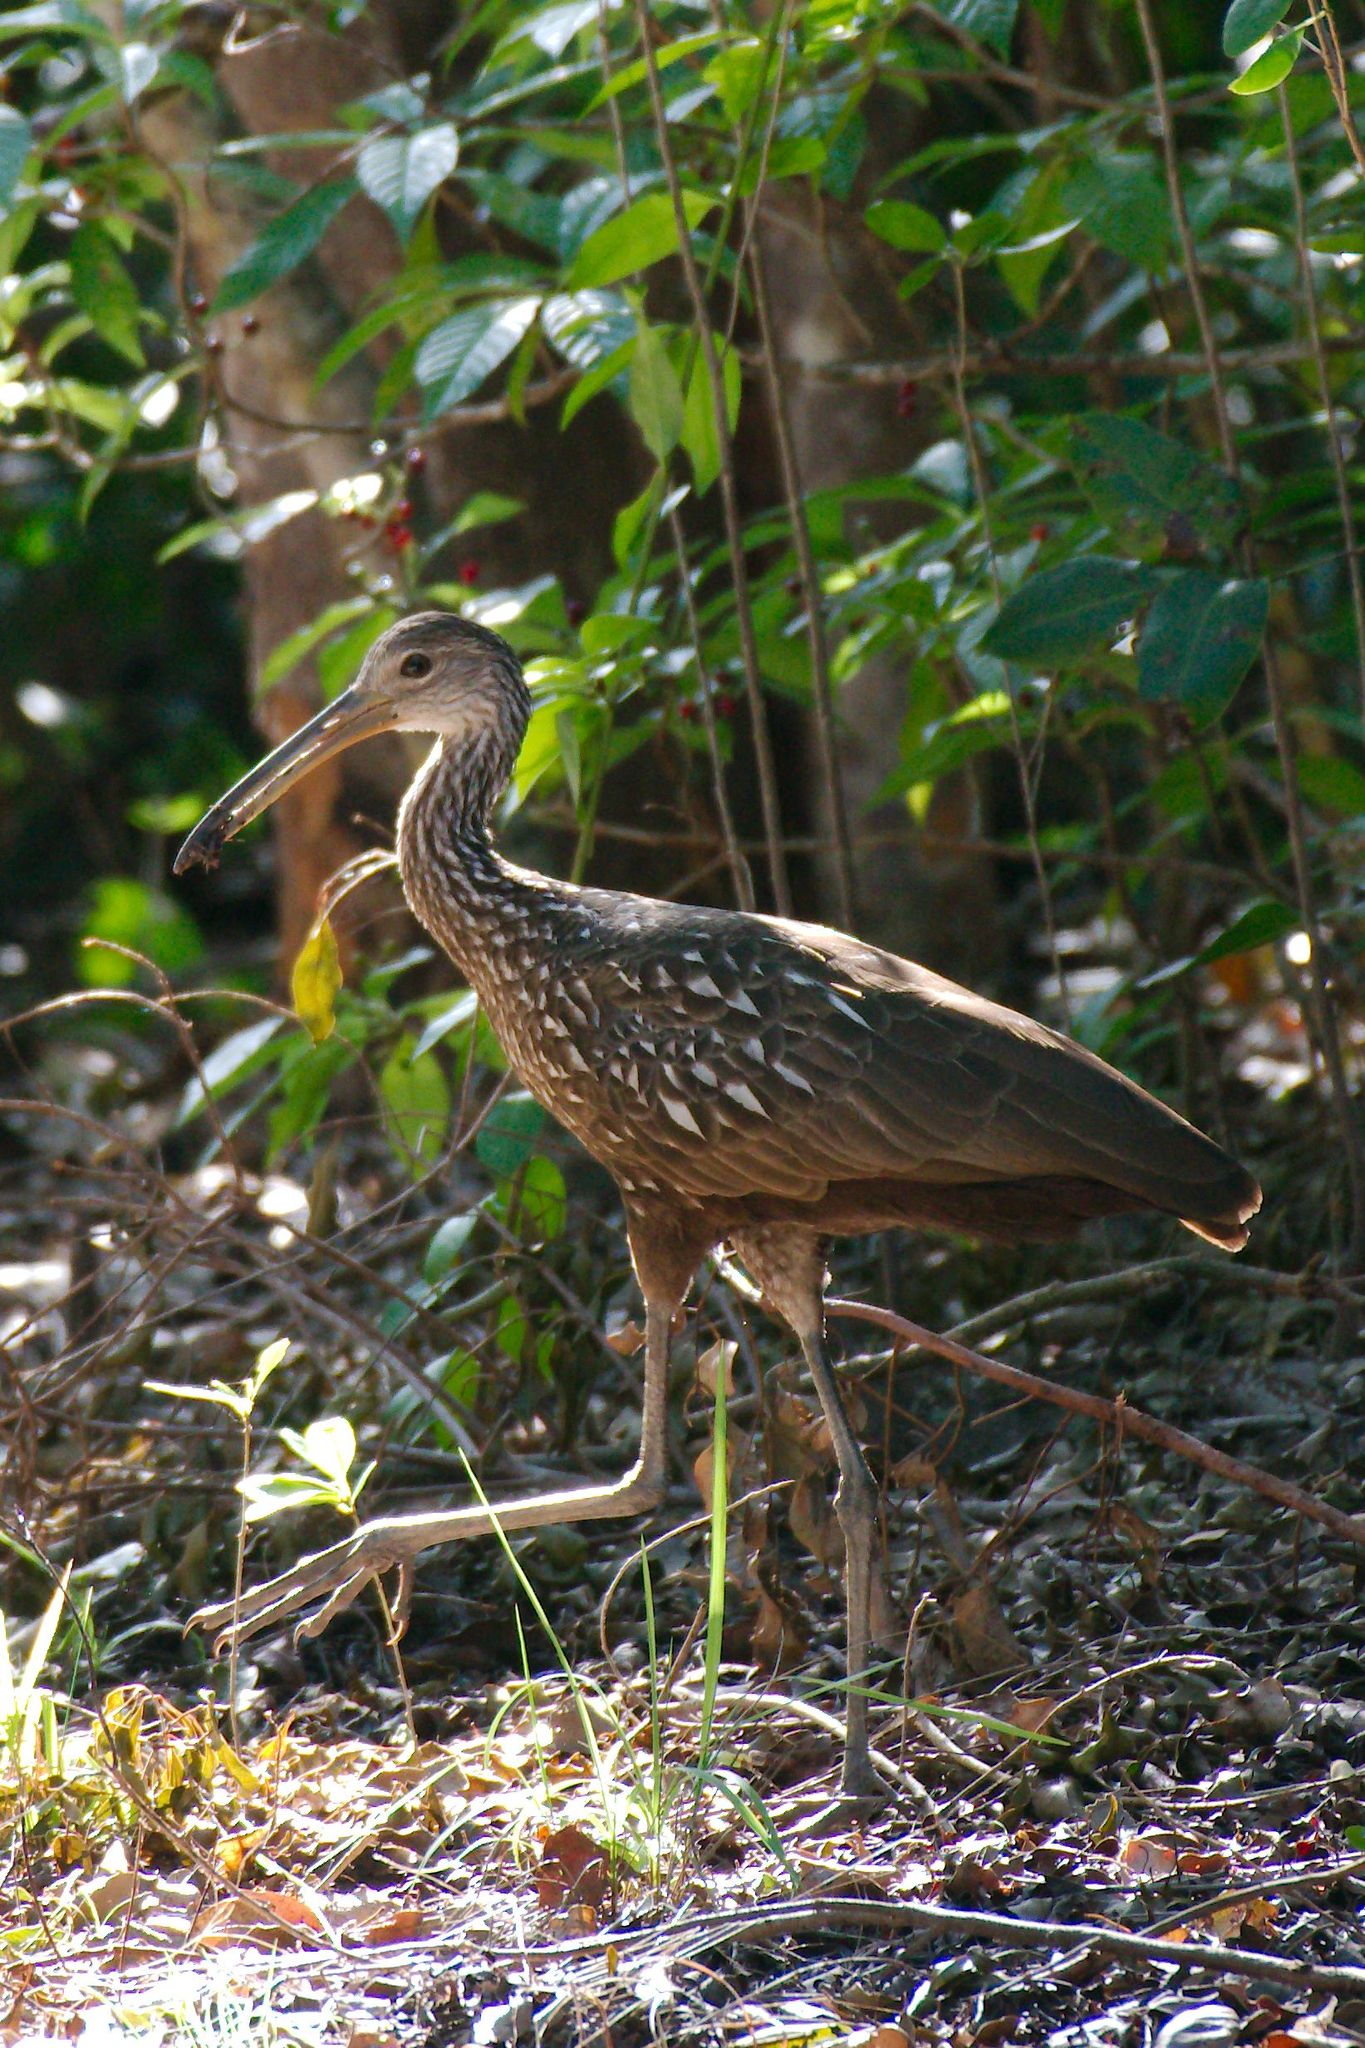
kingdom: Animalia
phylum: Chordata
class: Aves
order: Gruiformes
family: Aramidae
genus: Aramus
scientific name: Aramus guarauna
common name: Limpkin
